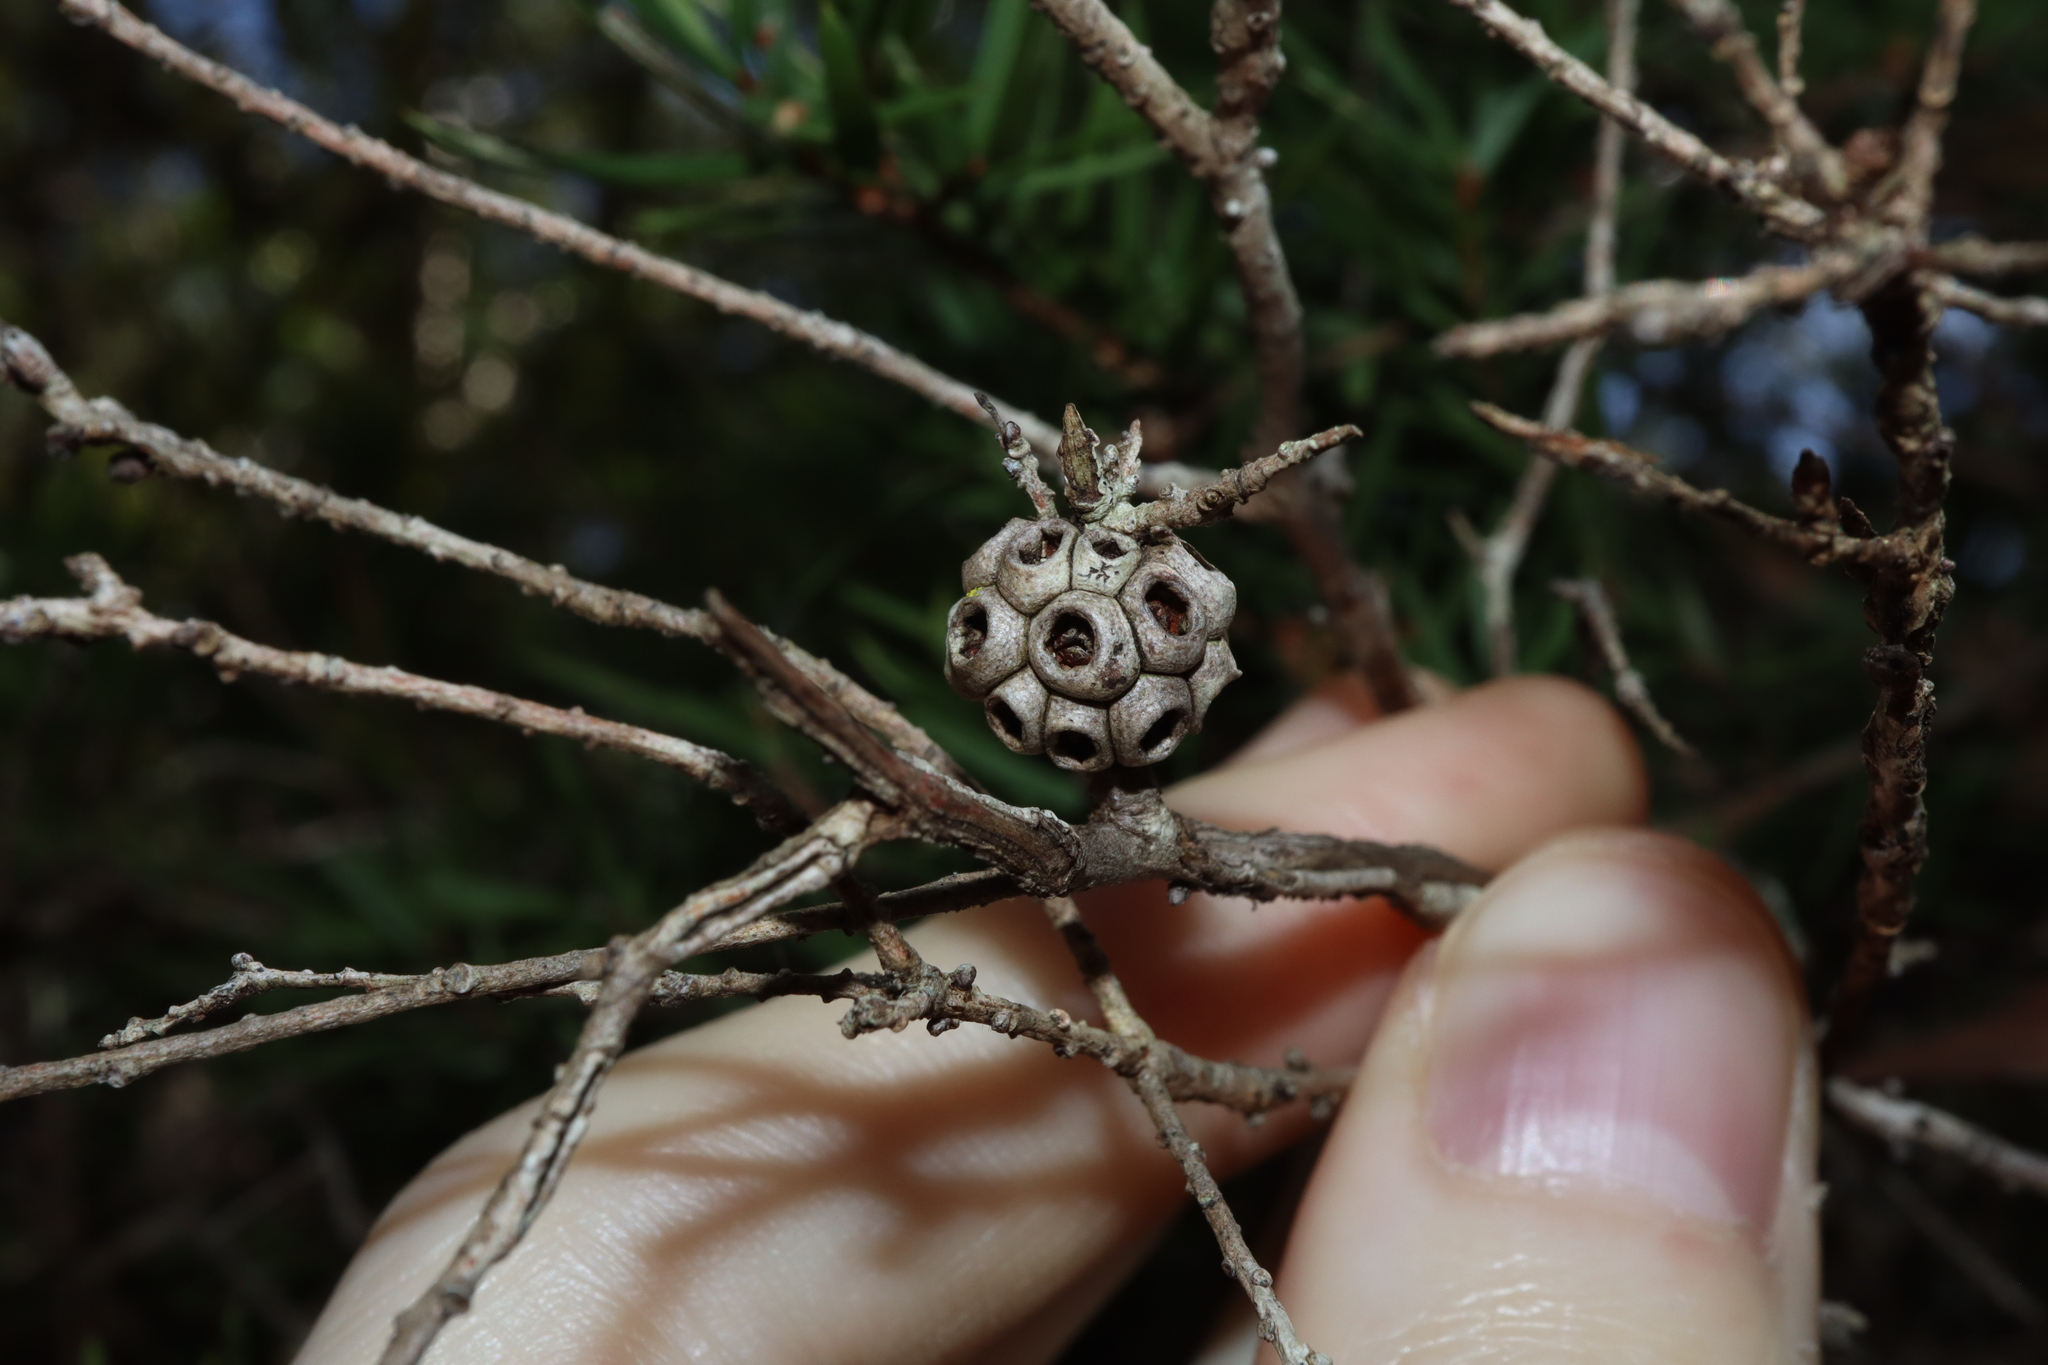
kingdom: Plantae
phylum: Tracheophyta
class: Magnoliopsida
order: Myrtales
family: Myrtaceae
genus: Melaleuca
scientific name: Melaleuca nodosa
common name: Prickly-leaf paperbark
